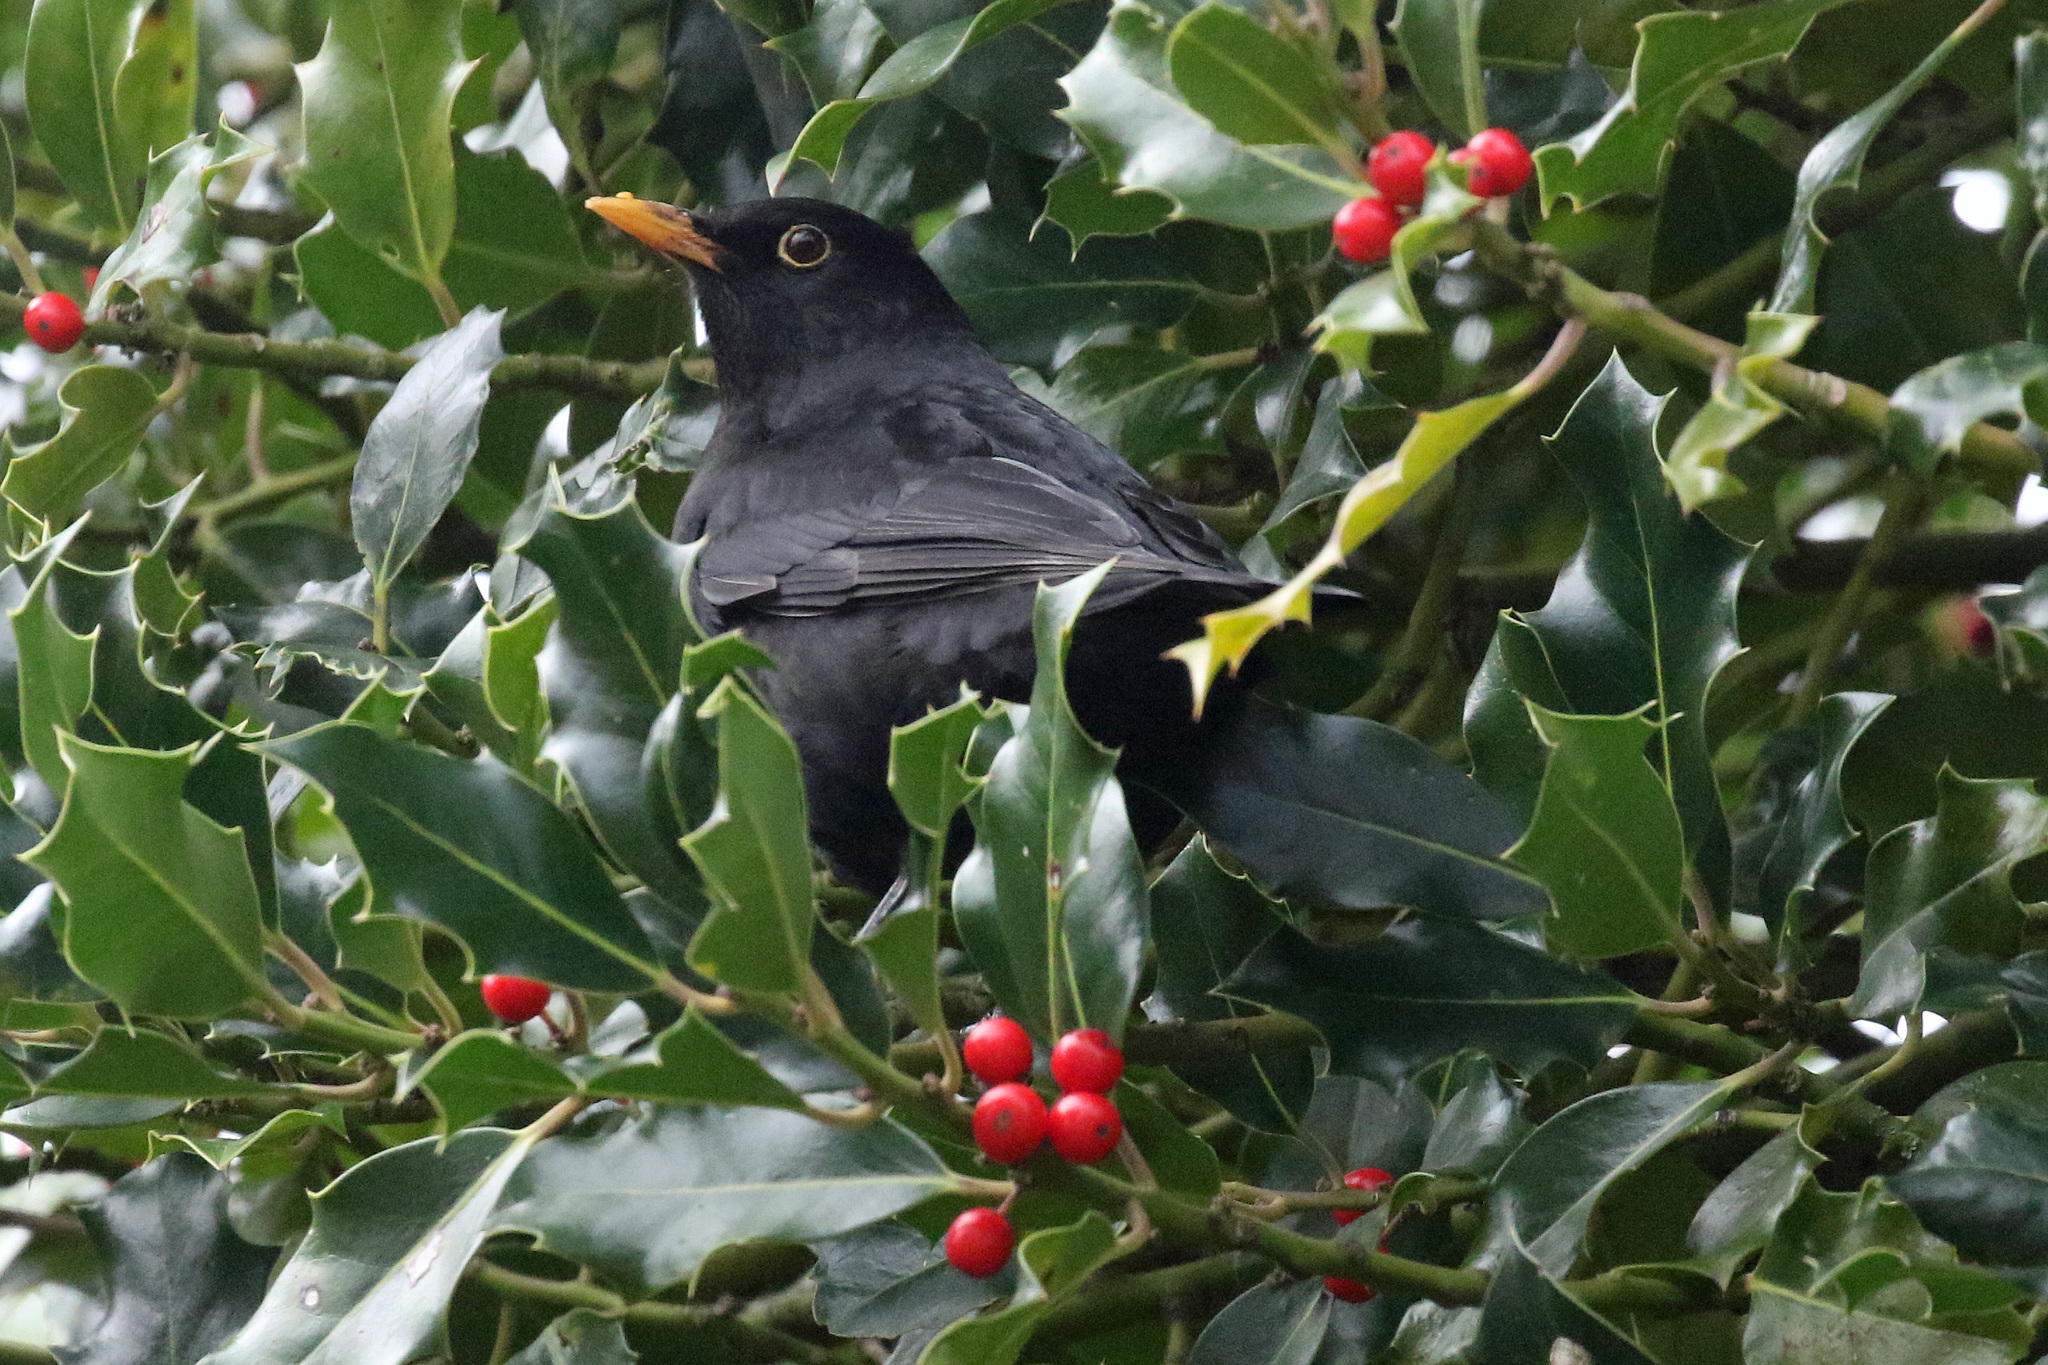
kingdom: Animalia
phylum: Chordata
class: Aves
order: Passeriformes
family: Turdidae
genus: Turdus
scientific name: Turdus merula
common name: Common blackbird
